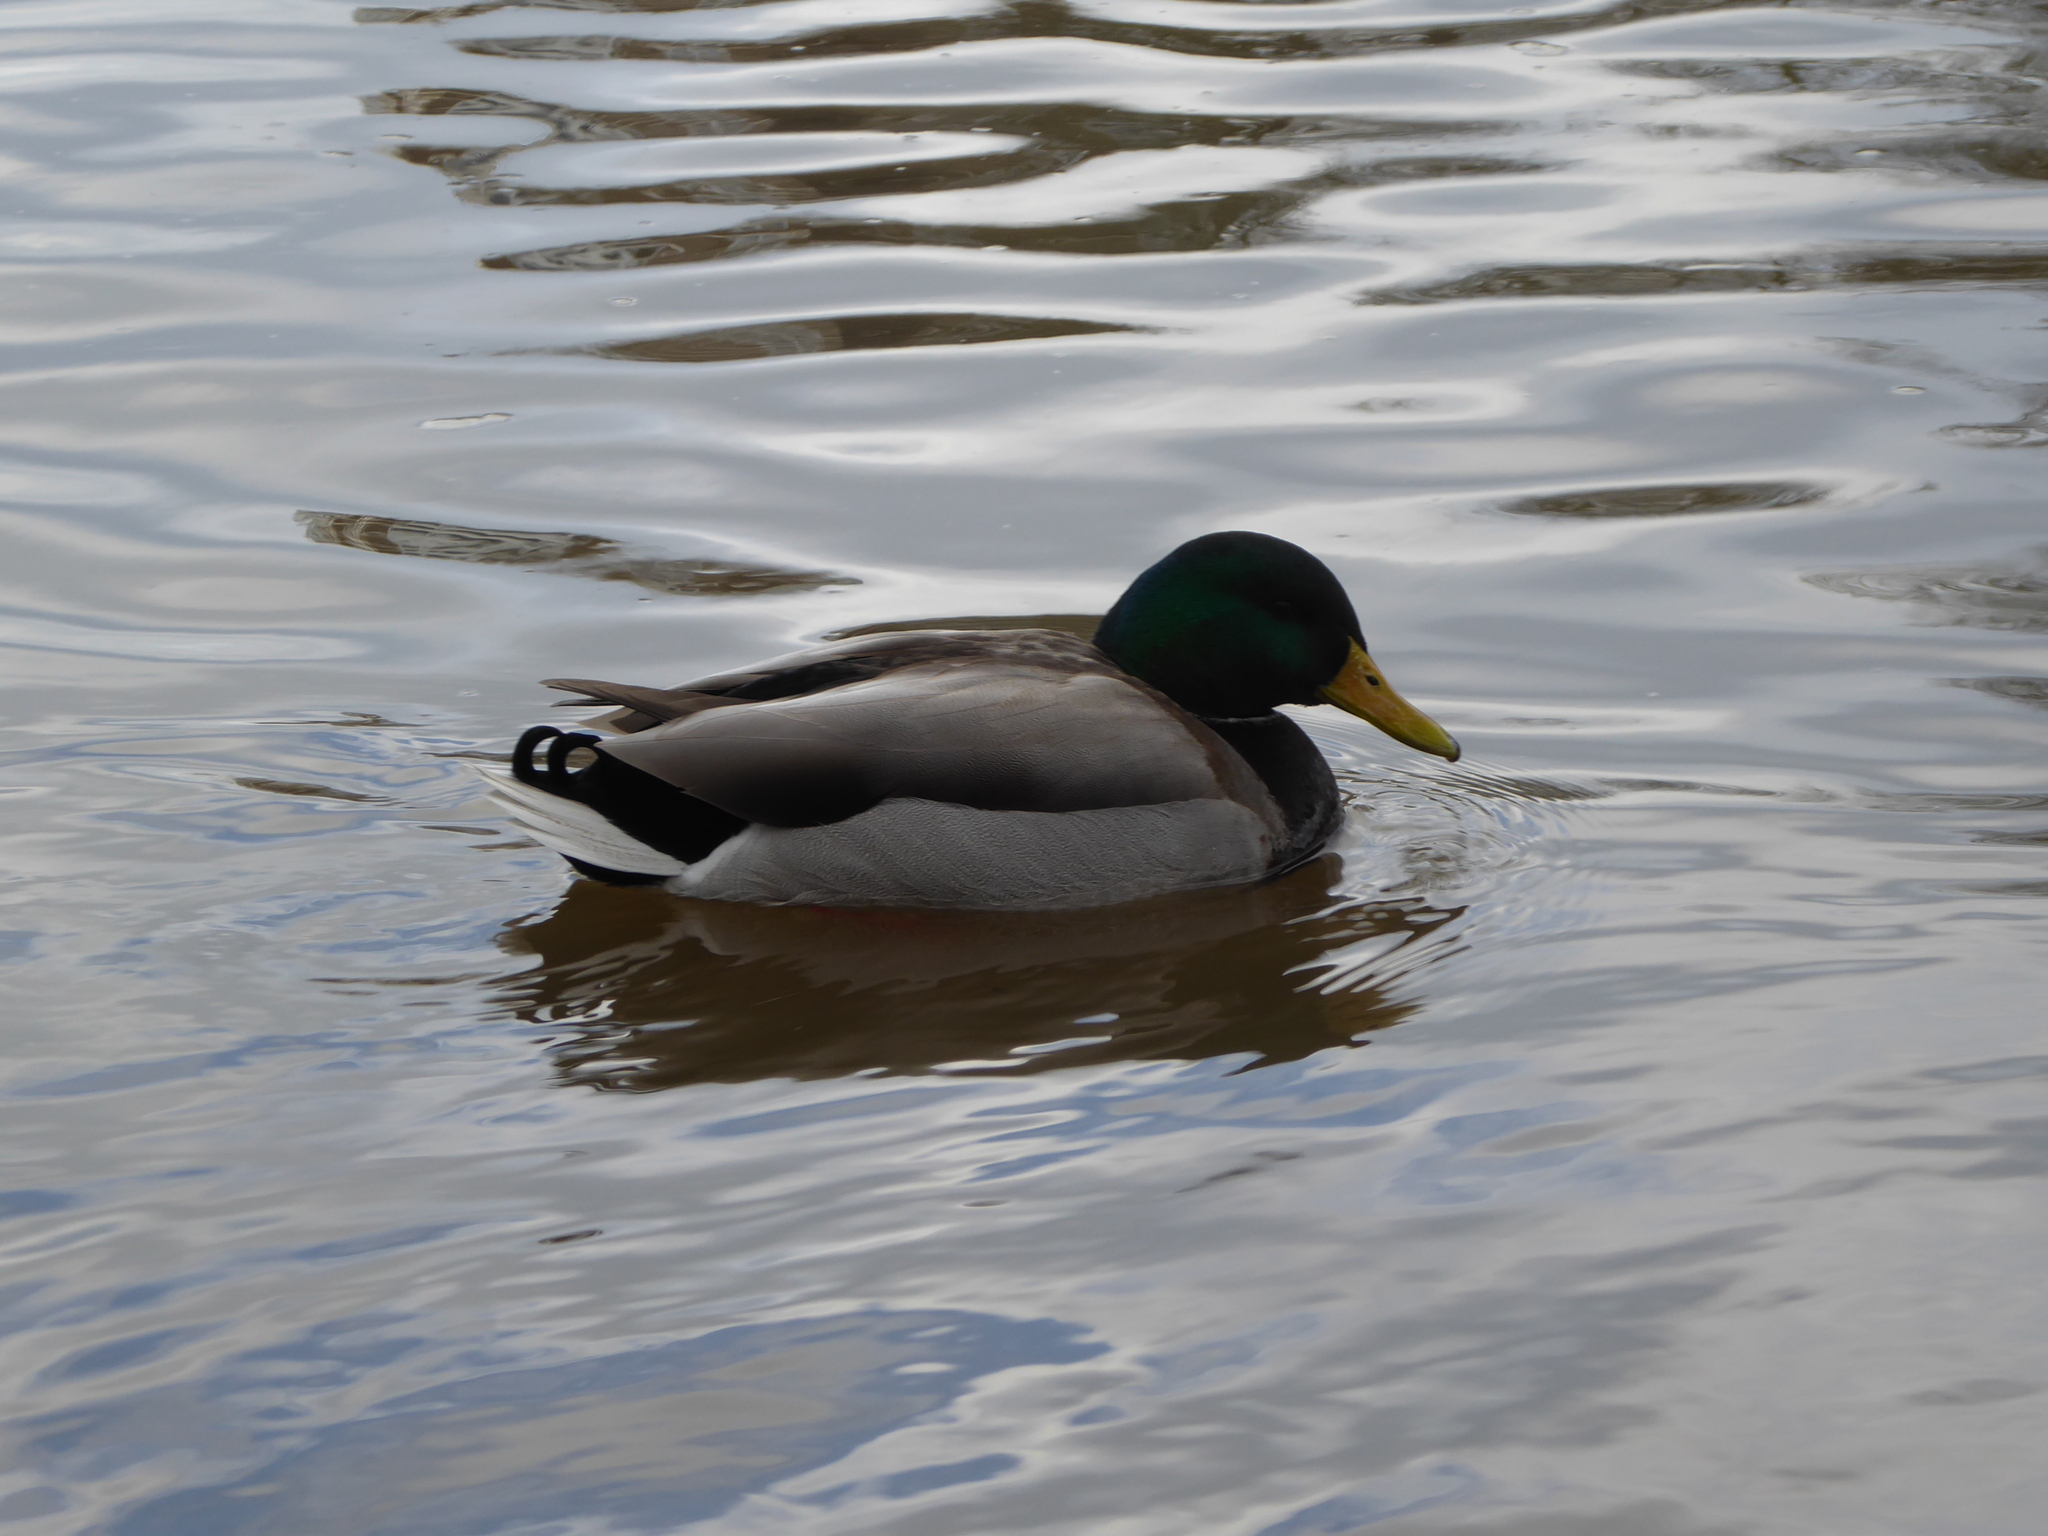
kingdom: Animalia
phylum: Chordata
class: Aves
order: Anseriformes
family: Anatidae
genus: Anas
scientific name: Anas platyrhynchos
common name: Mallard
